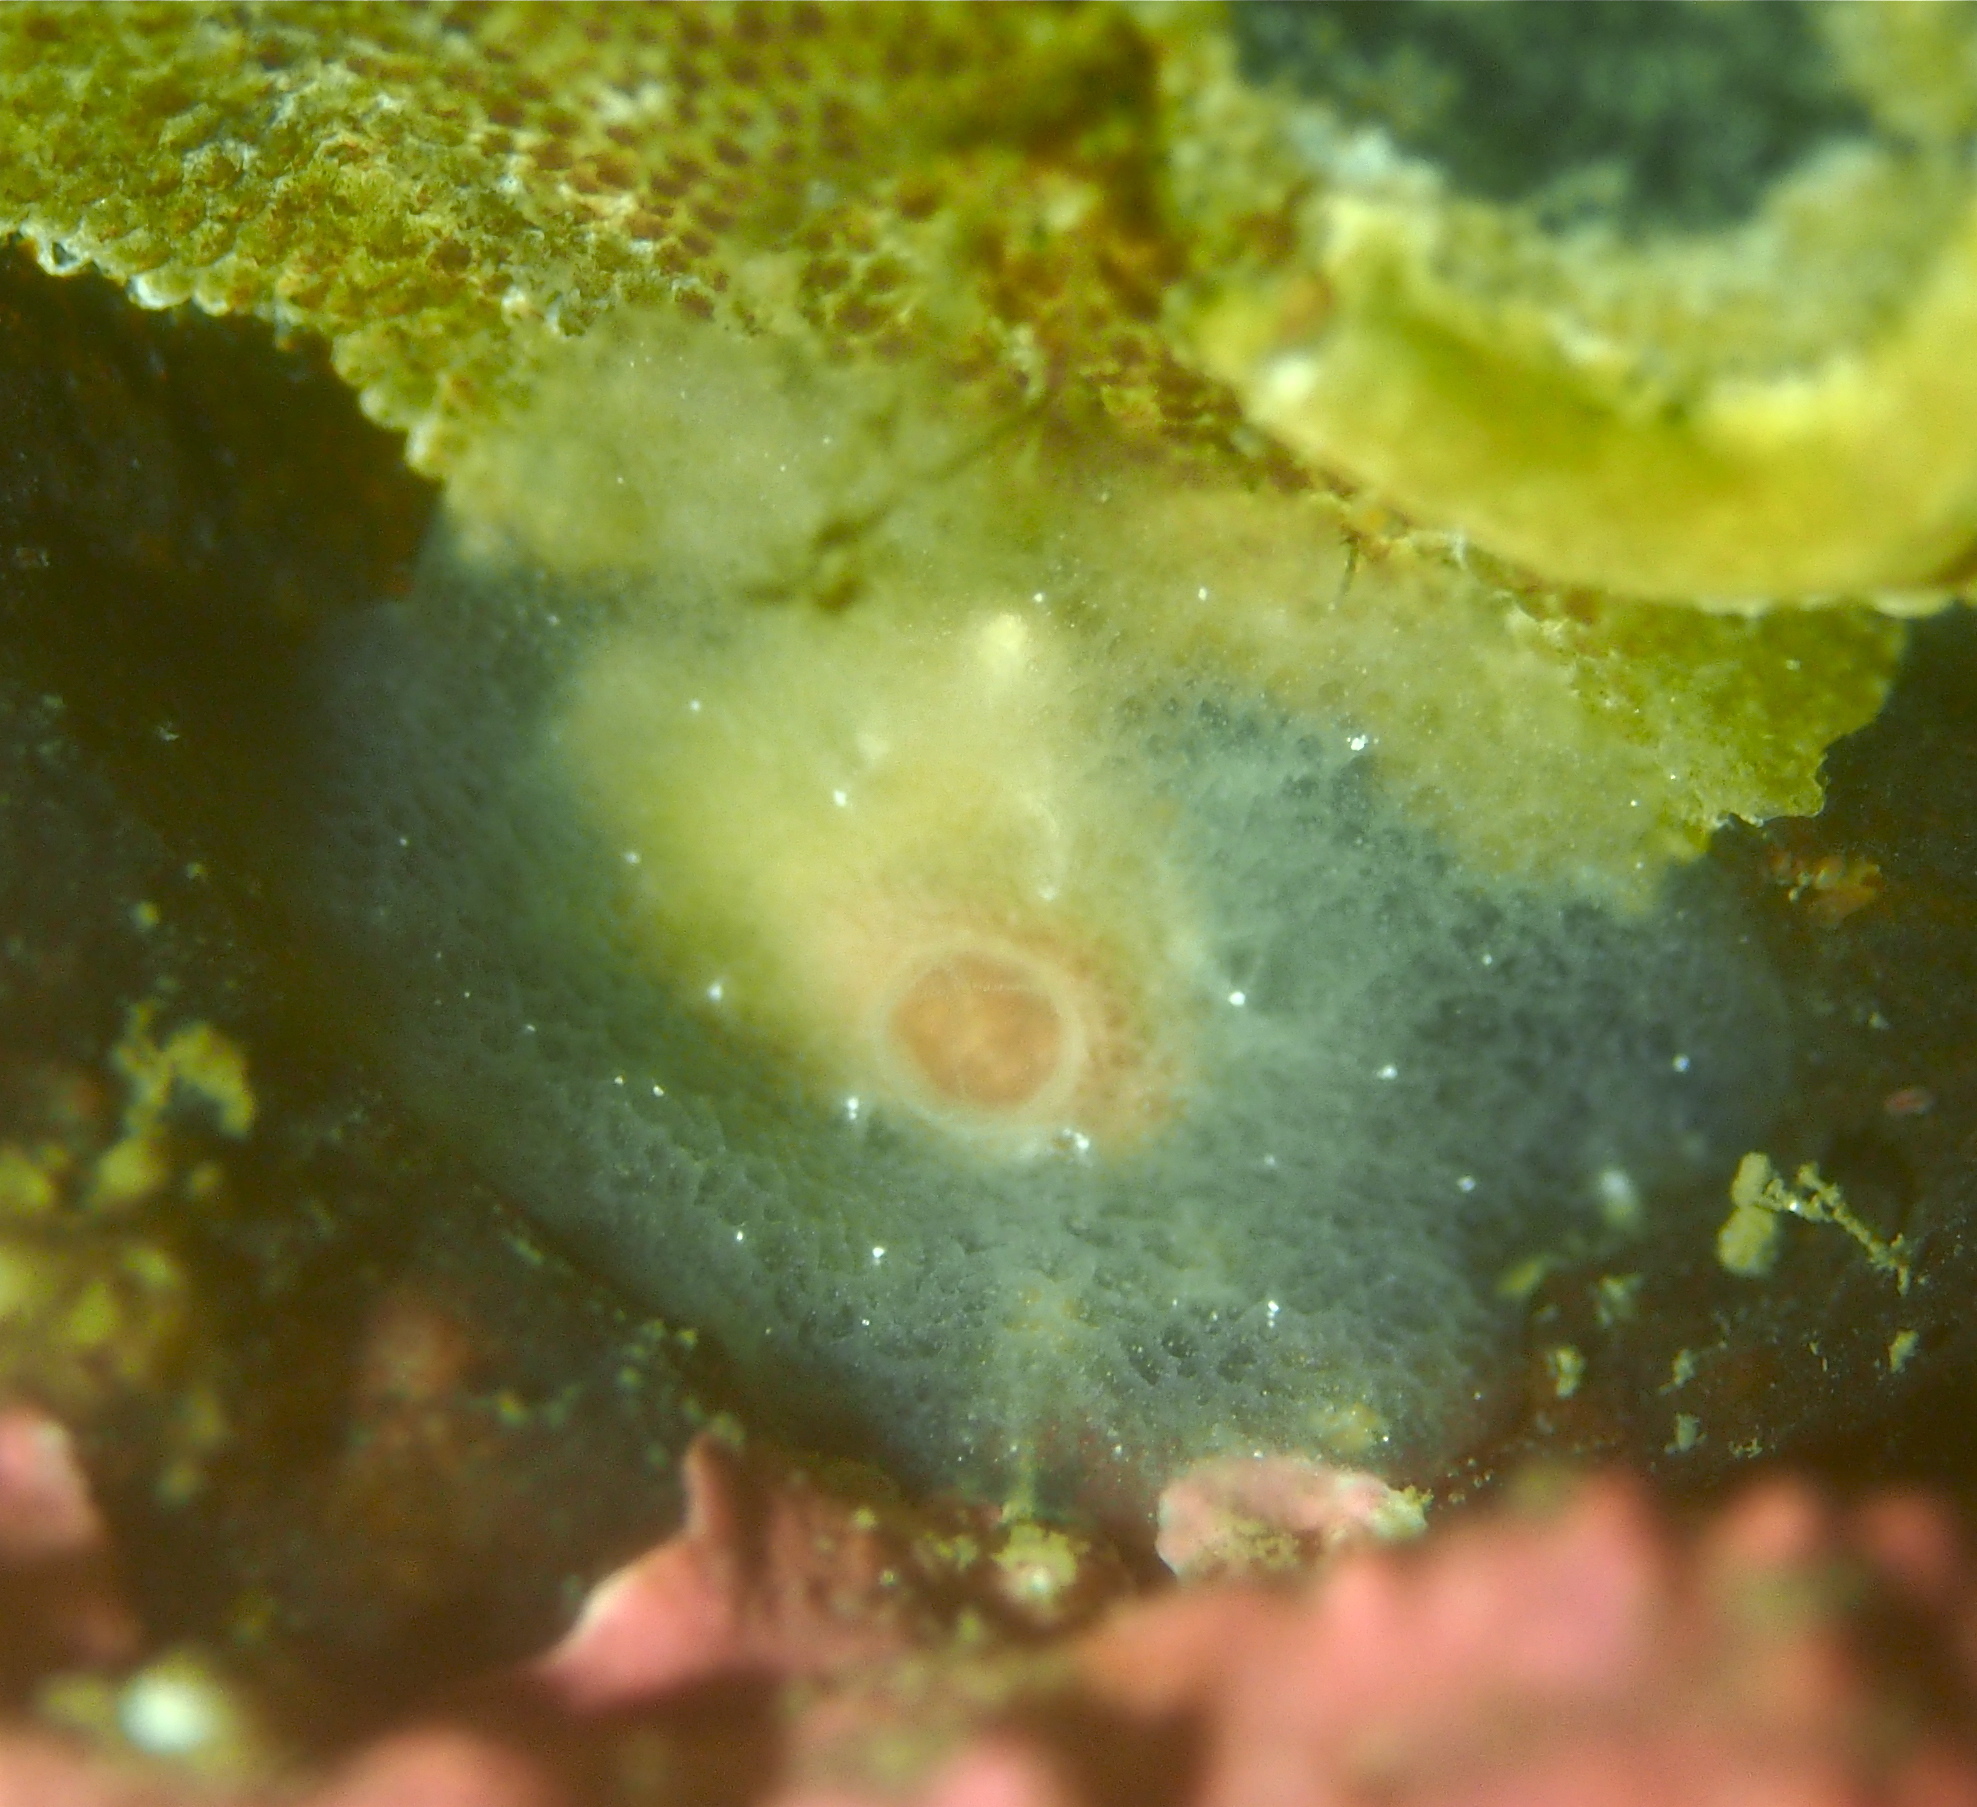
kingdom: Animalia
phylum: Mollusca
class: Gastropoda
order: Pleurobranchida
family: Pleurobranchidae
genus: Berthella
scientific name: Berthella plumula
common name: Yellow-plumed sea slug
